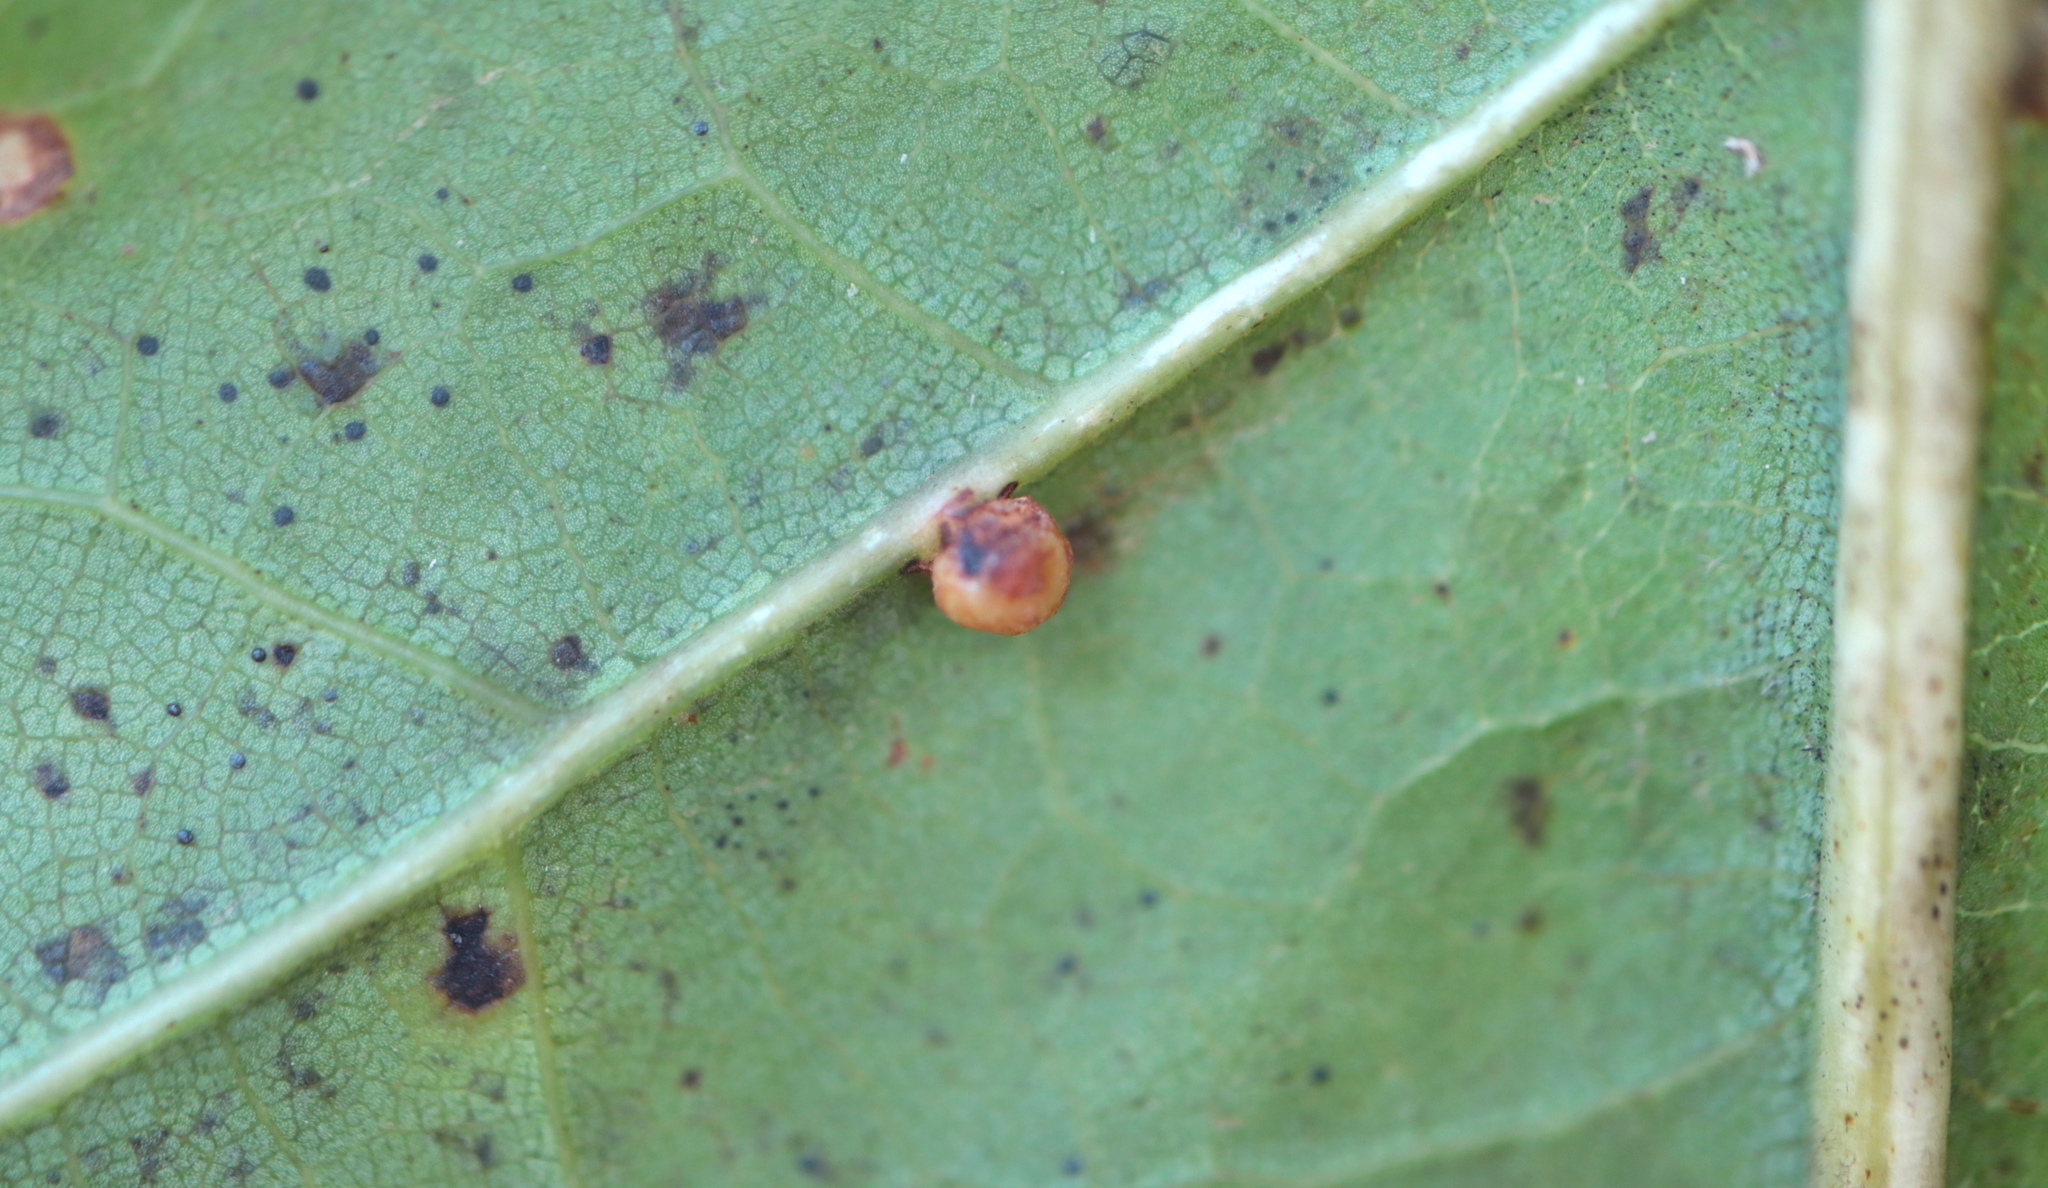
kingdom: Animalia
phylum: Arthropoda
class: Insecta
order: Diptera
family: Cecidomyiidae
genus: Polystepha
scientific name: Polystepha globosa
